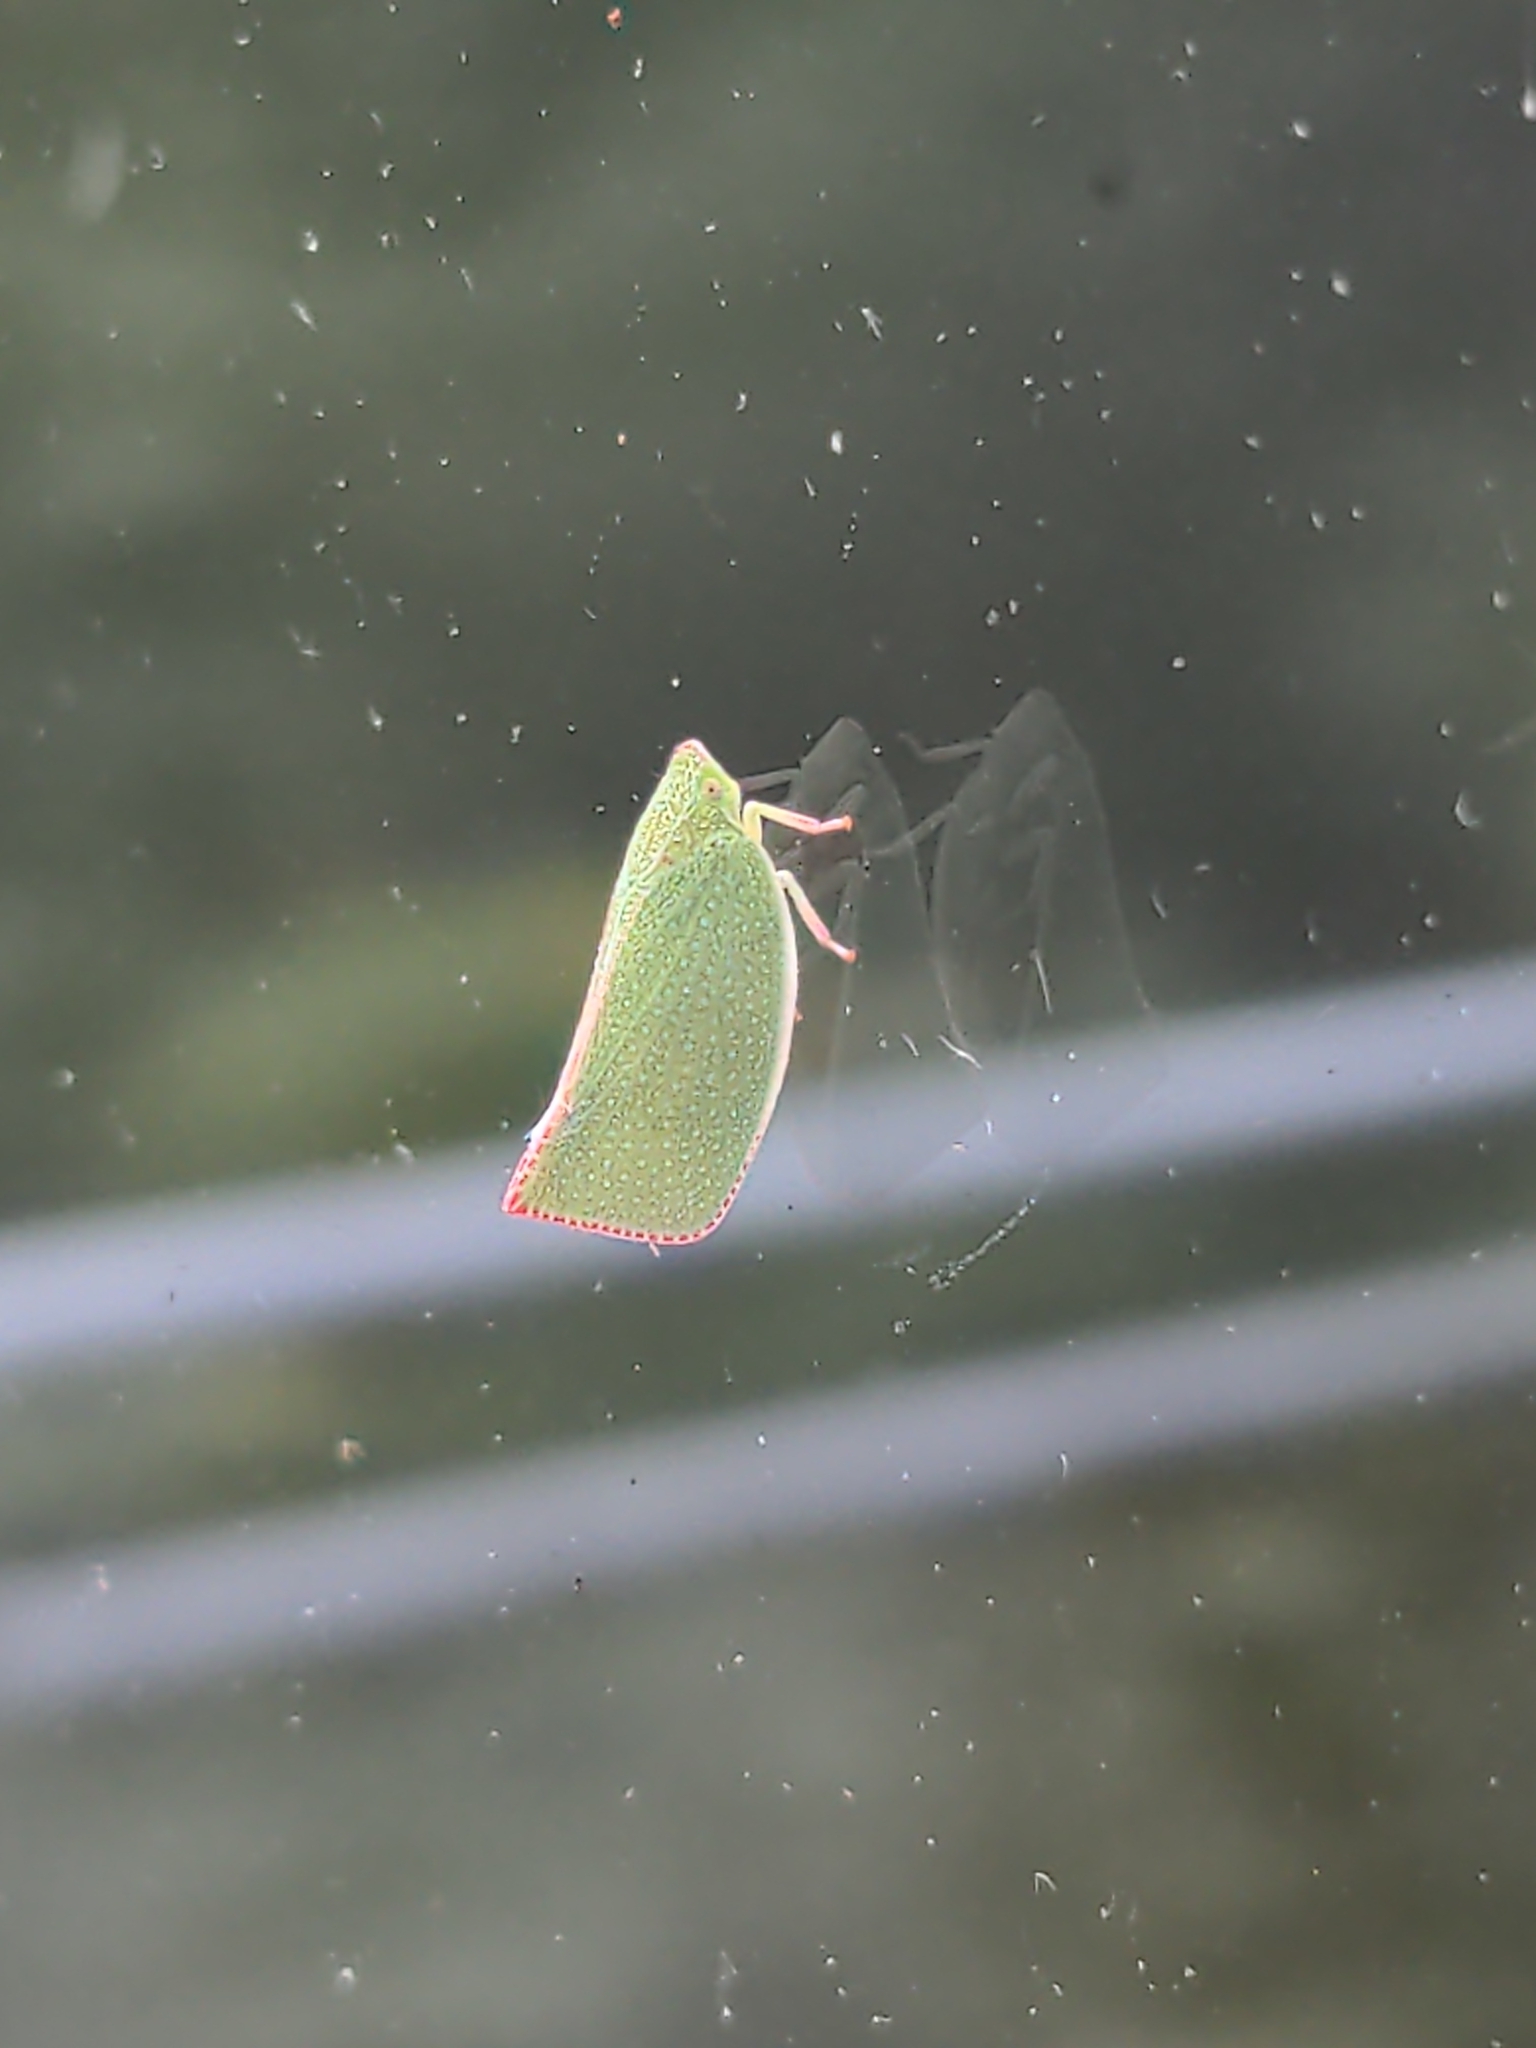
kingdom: Animalia
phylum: Arthropoda
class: Insecta
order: Hemiptera
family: Flatidae
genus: Siphanta
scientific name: Siphanta acuta
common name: Torpedo bug
